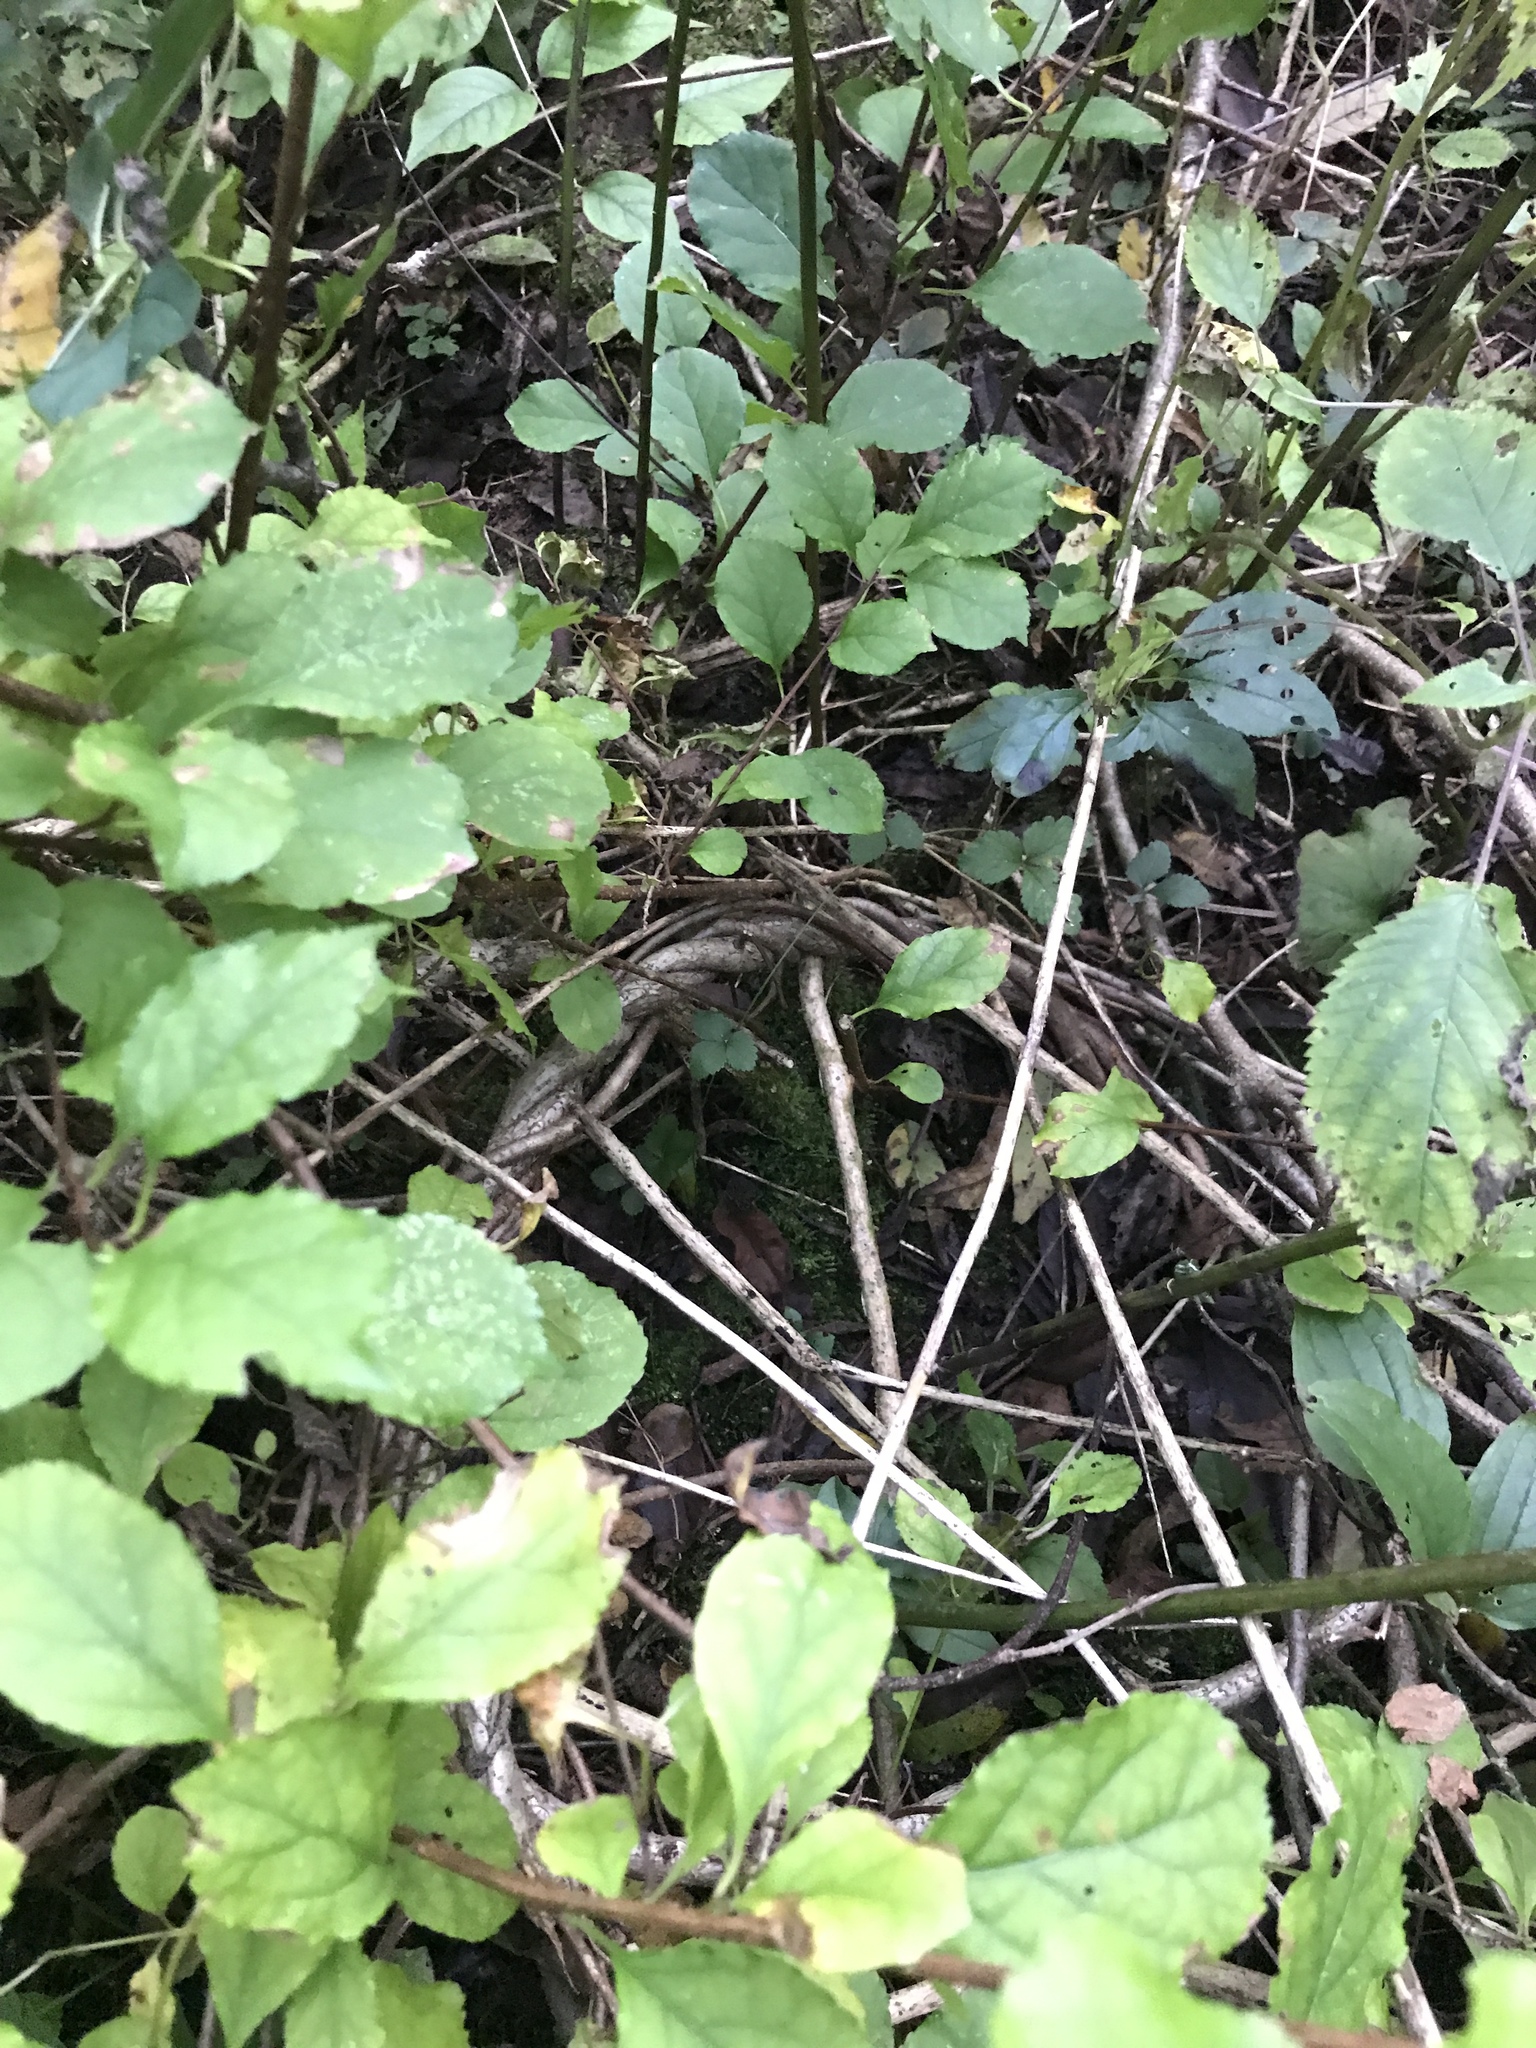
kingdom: Plantae
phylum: Tracheophyta
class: Magnoliopsida
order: Celastrales
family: Celastraceae
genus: Celastrus
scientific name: Celastrus orbiculatus
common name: Oriental bittersweet
